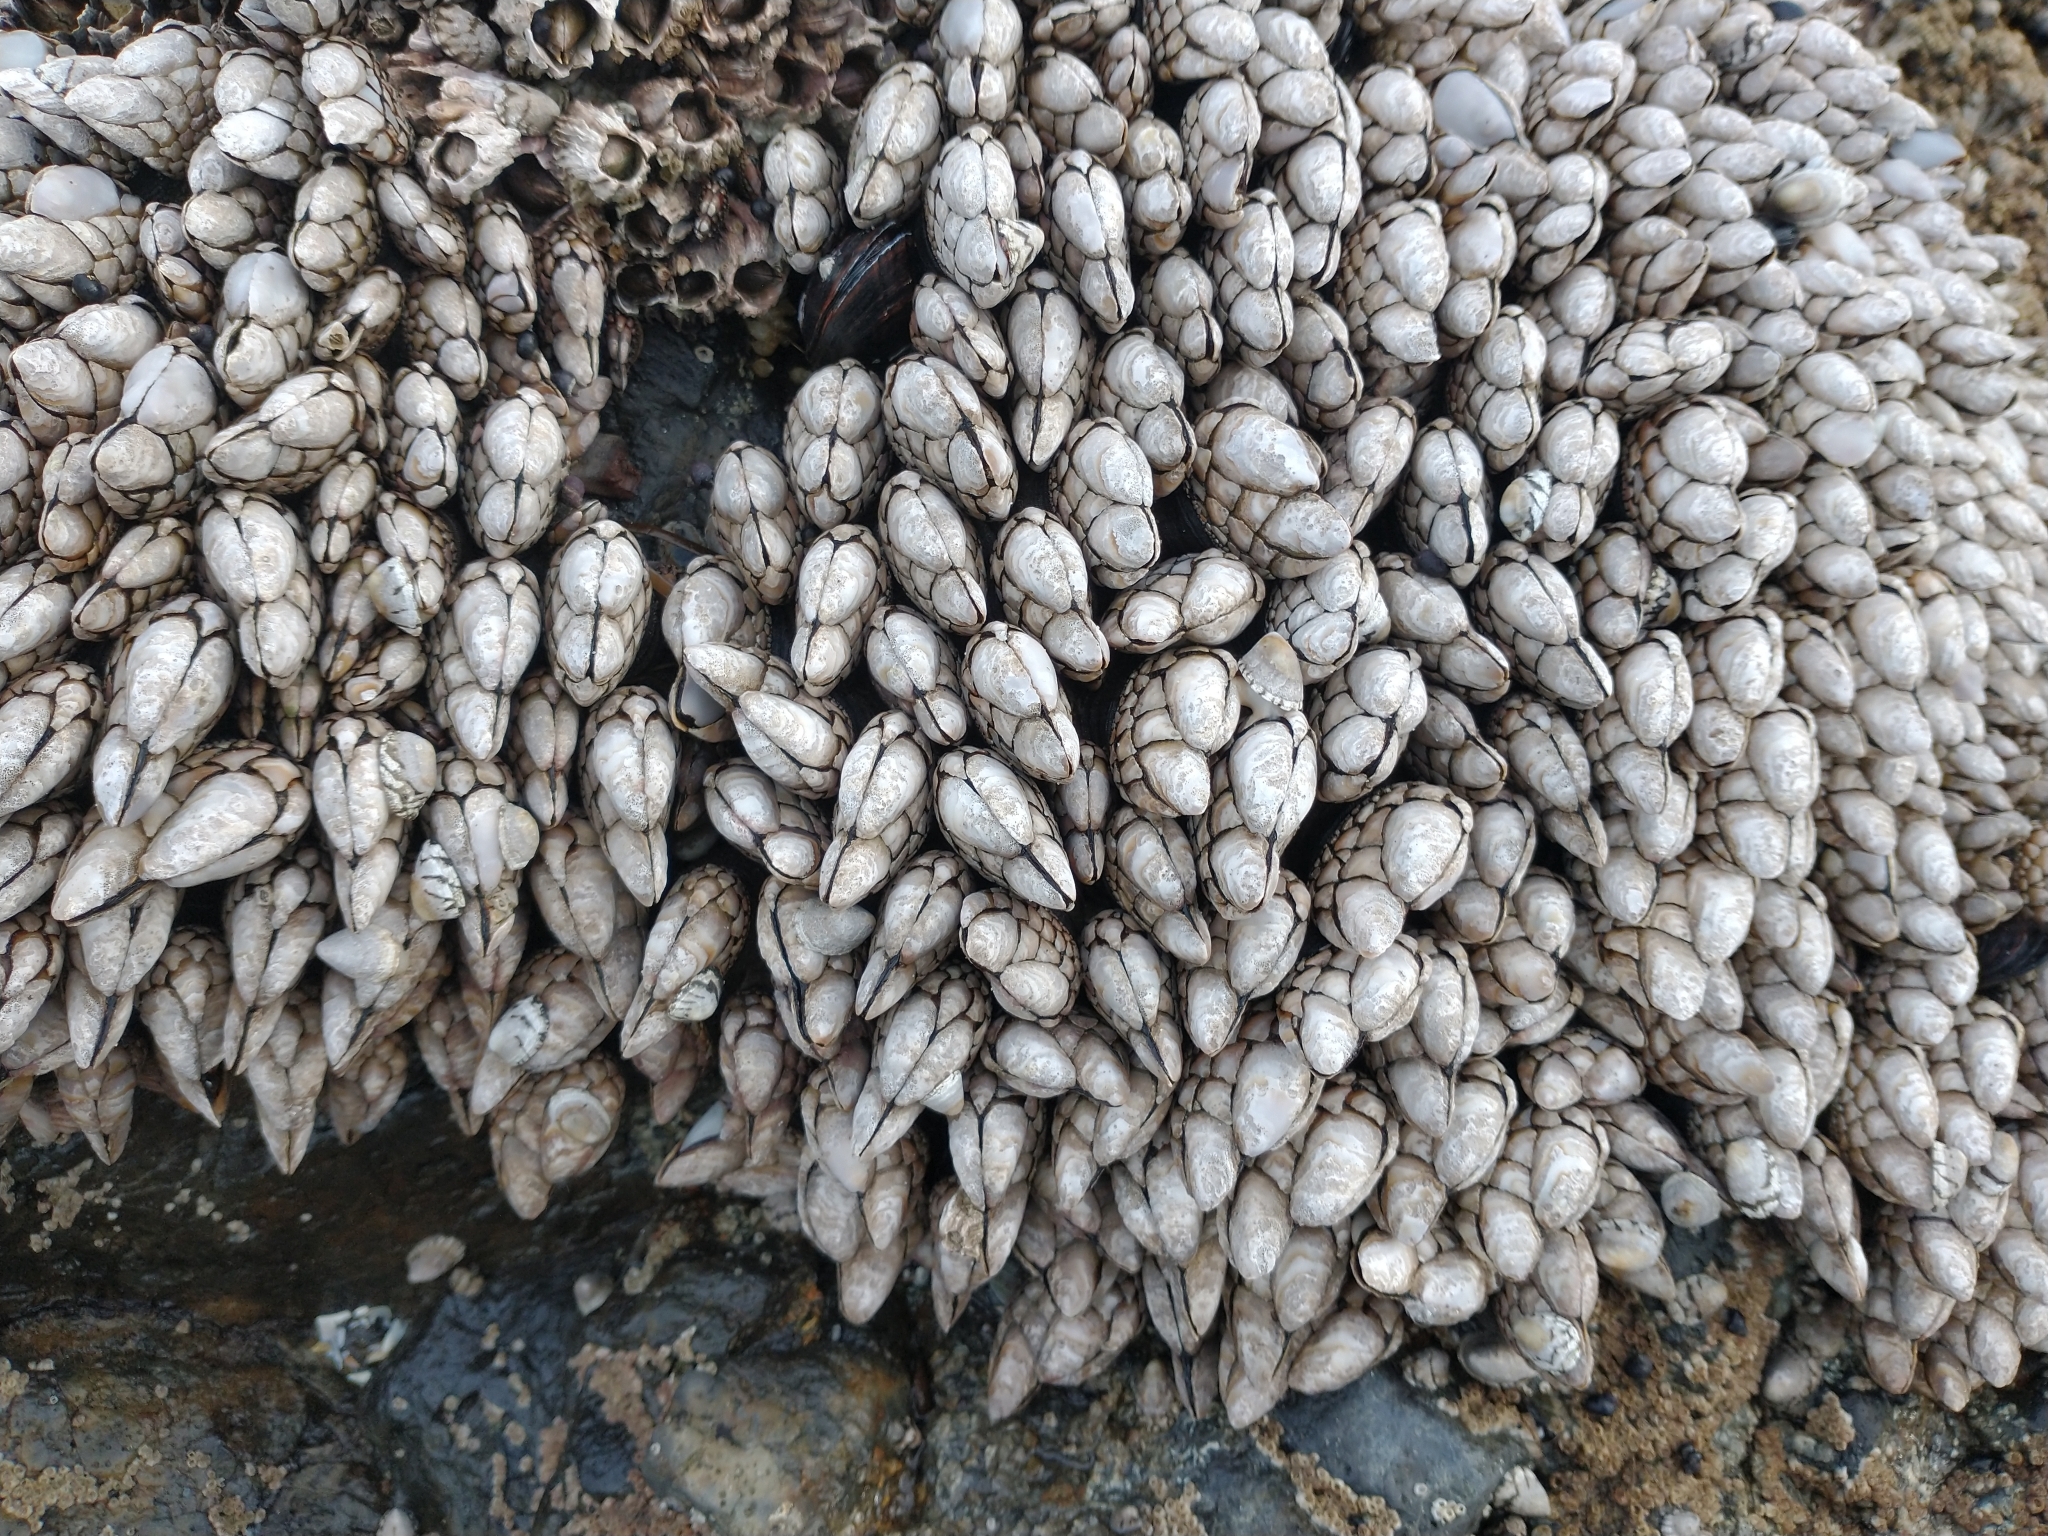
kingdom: Animalia
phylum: Arthropoda
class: Maxillopoda
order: Pedunculata
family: Pollicipedidae
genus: Pollicipes
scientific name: Pollicipes polymerus
